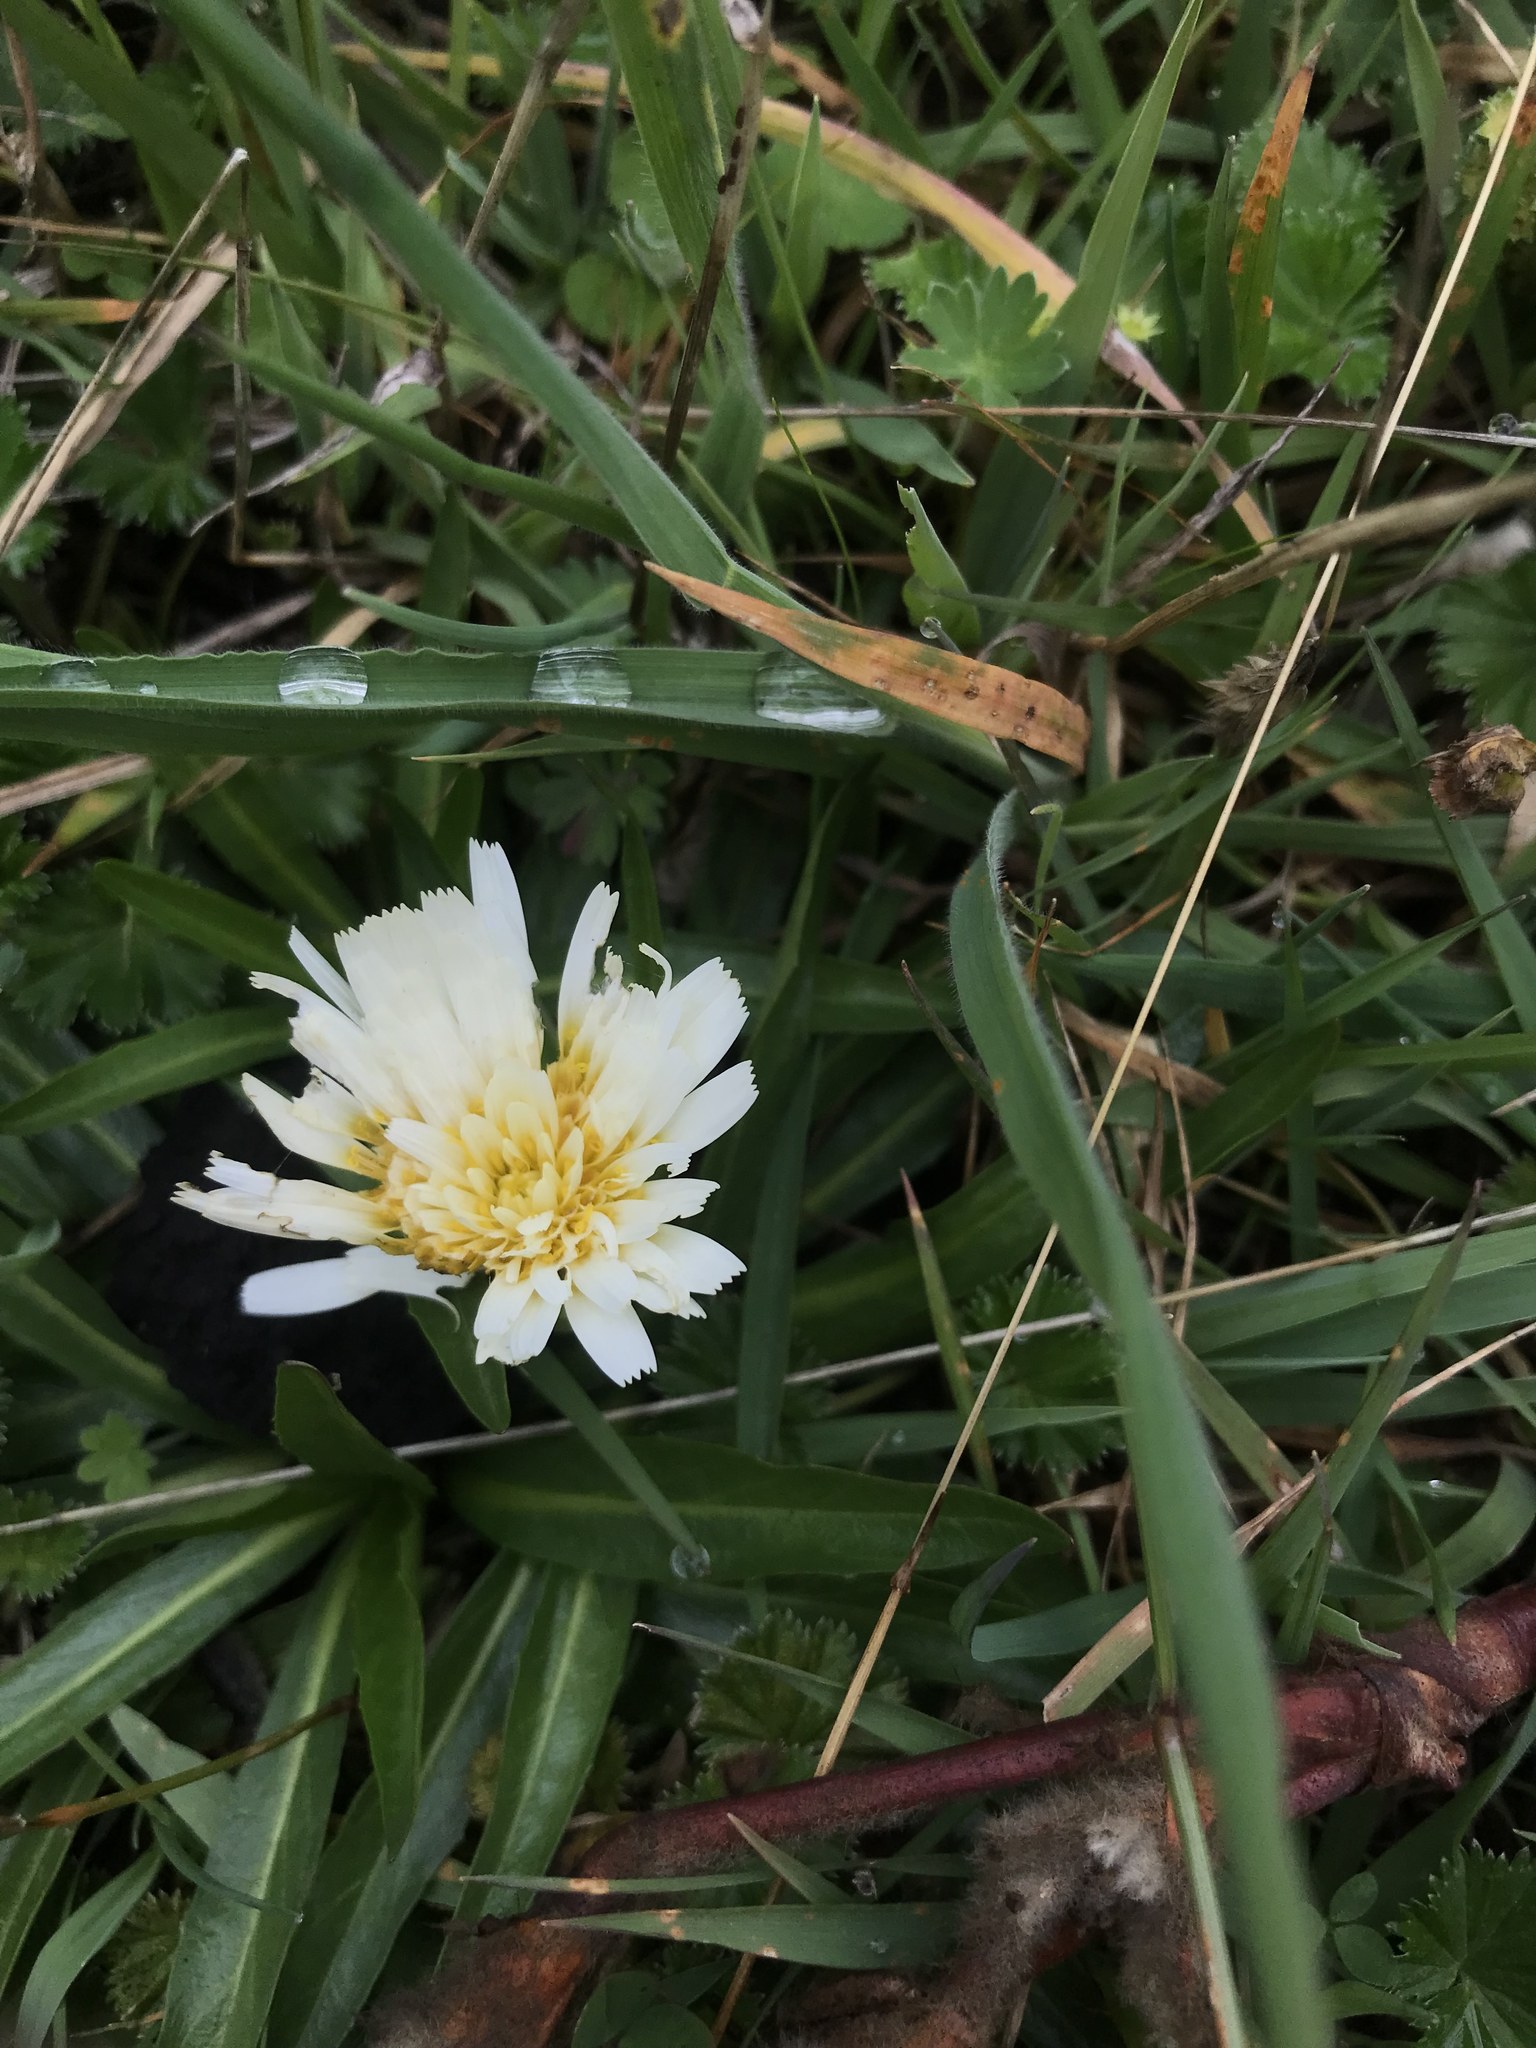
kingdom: Plantae
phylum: Tracheophyta
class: Magnoliopsida
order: Asterales
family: Asteraceae
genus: Hypochaeris
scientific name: Hypochaeris sessiliflora
